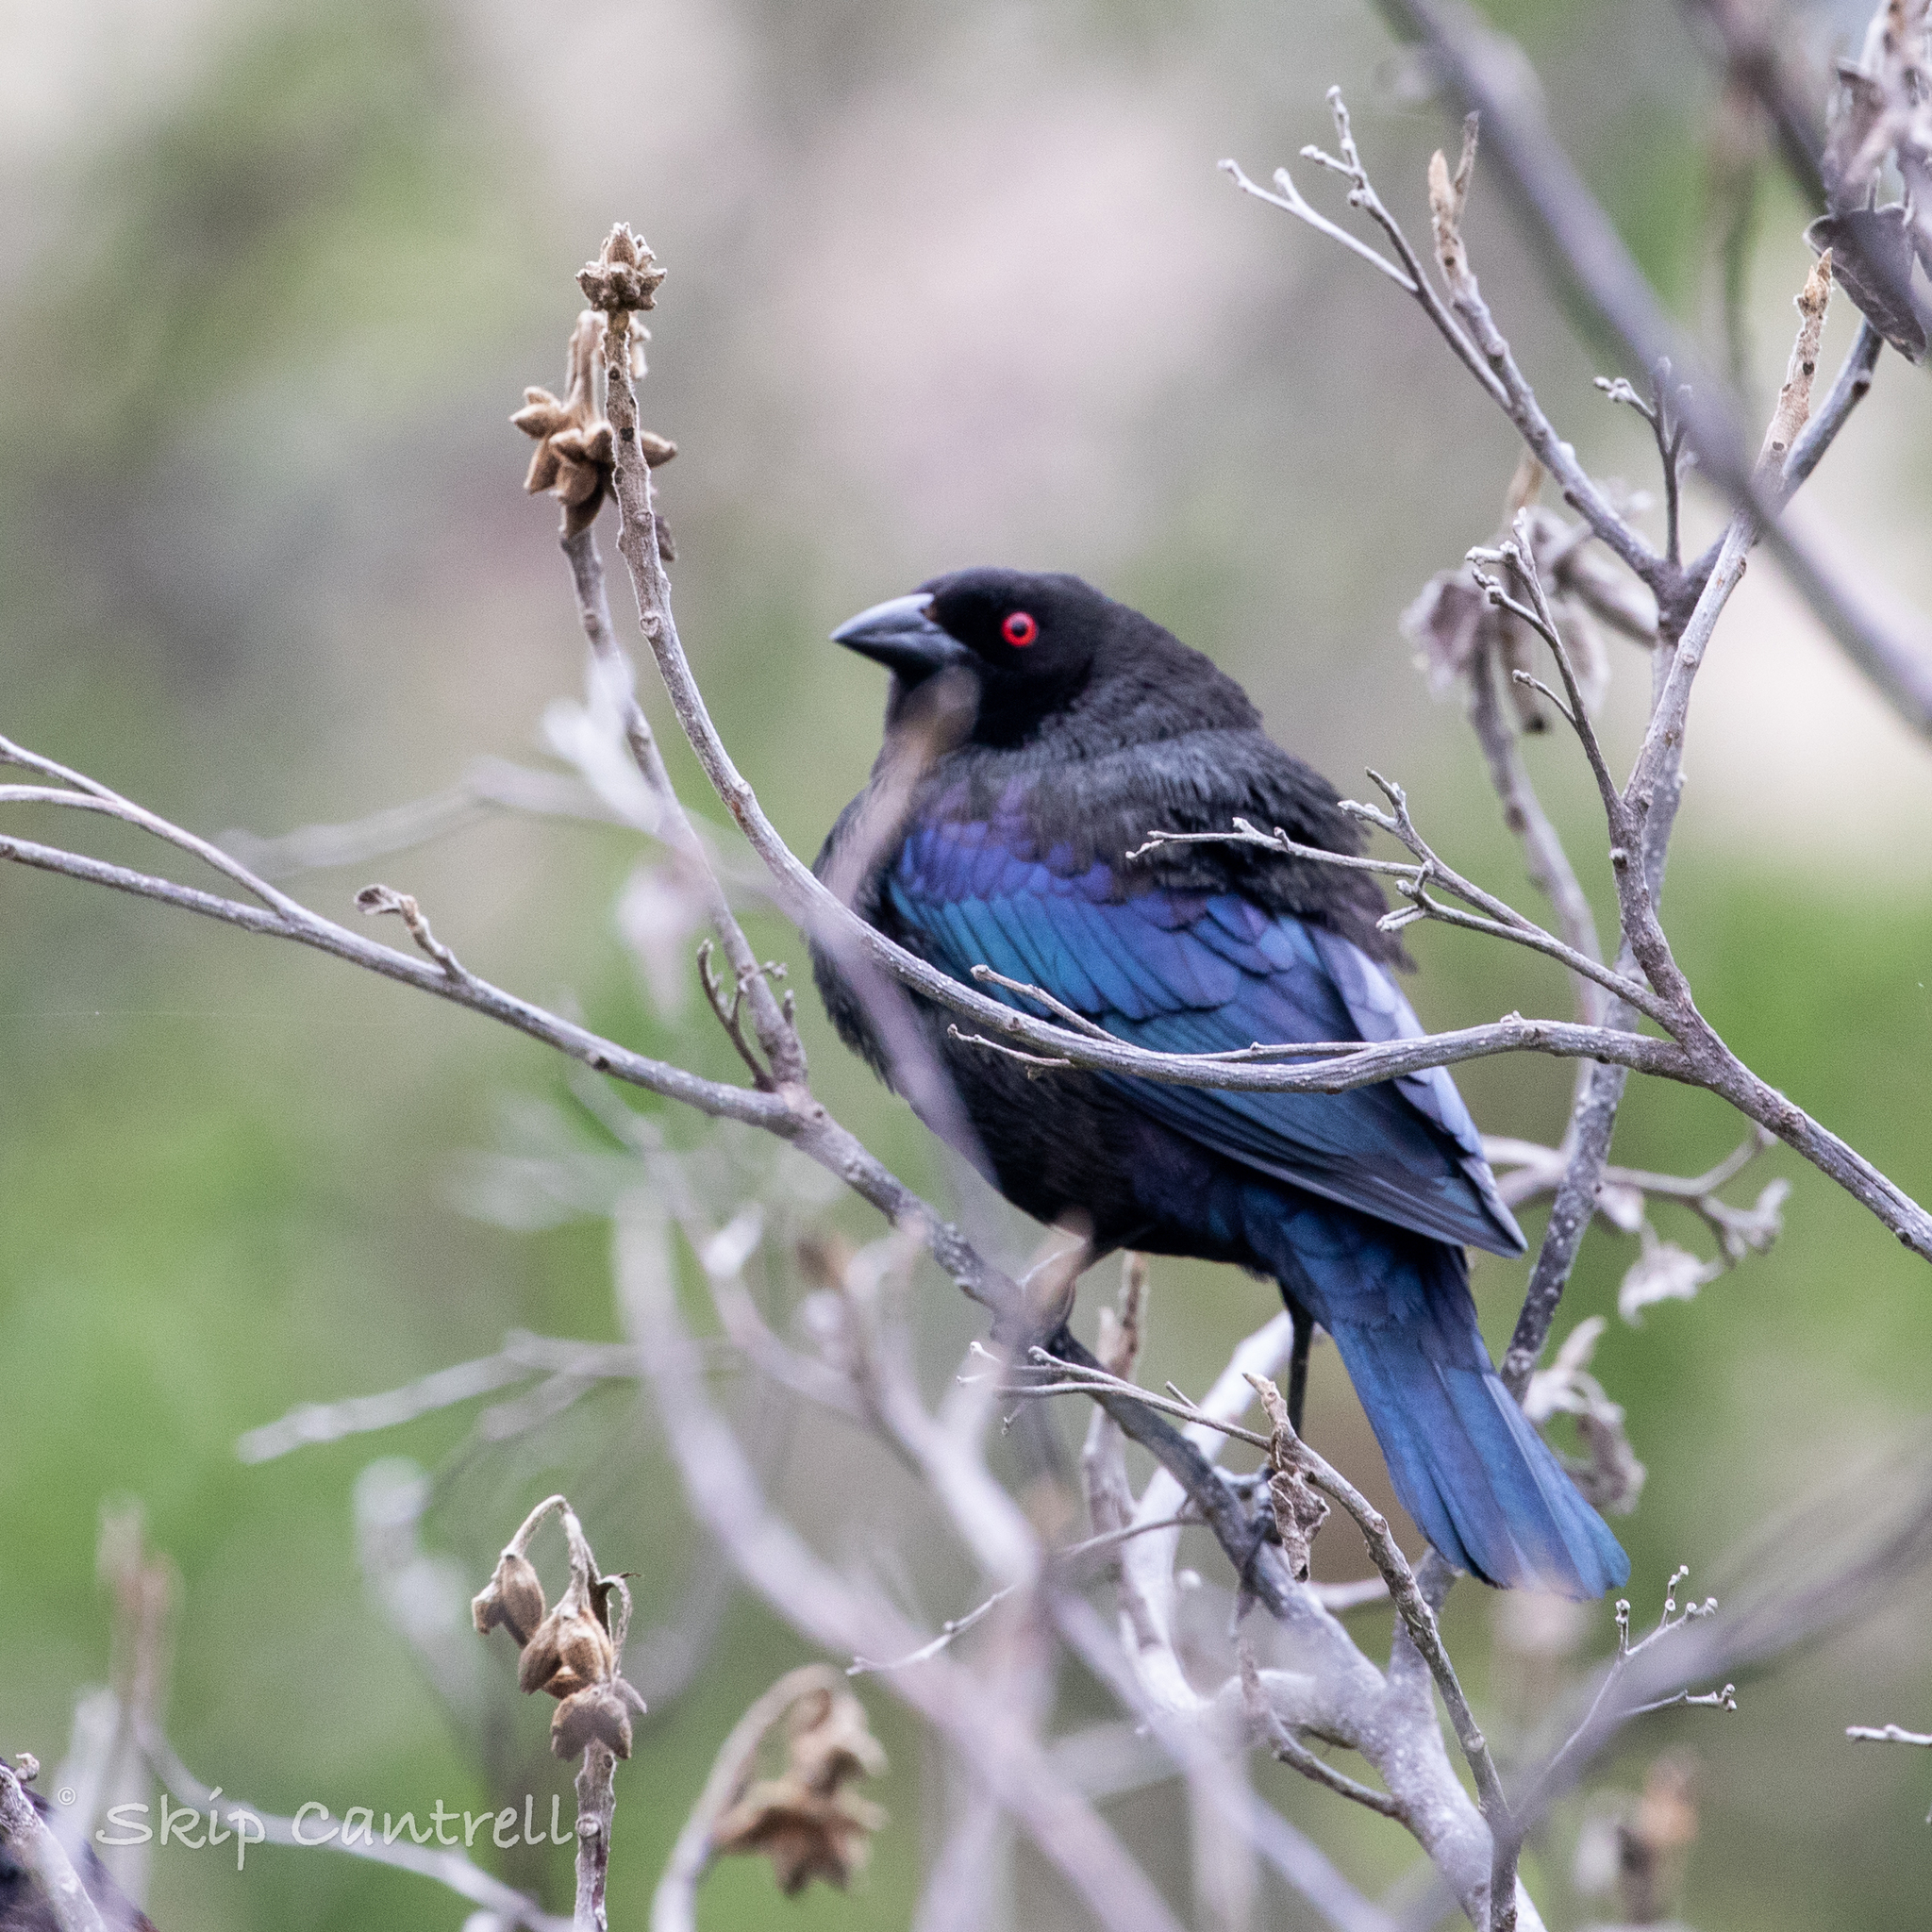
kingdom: Animalia
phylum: Chordata
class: Aves
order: Passeriformes
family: Icteridae
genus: Molothrus
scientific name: Molothrus aeneus
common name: Bronzed cowbird
